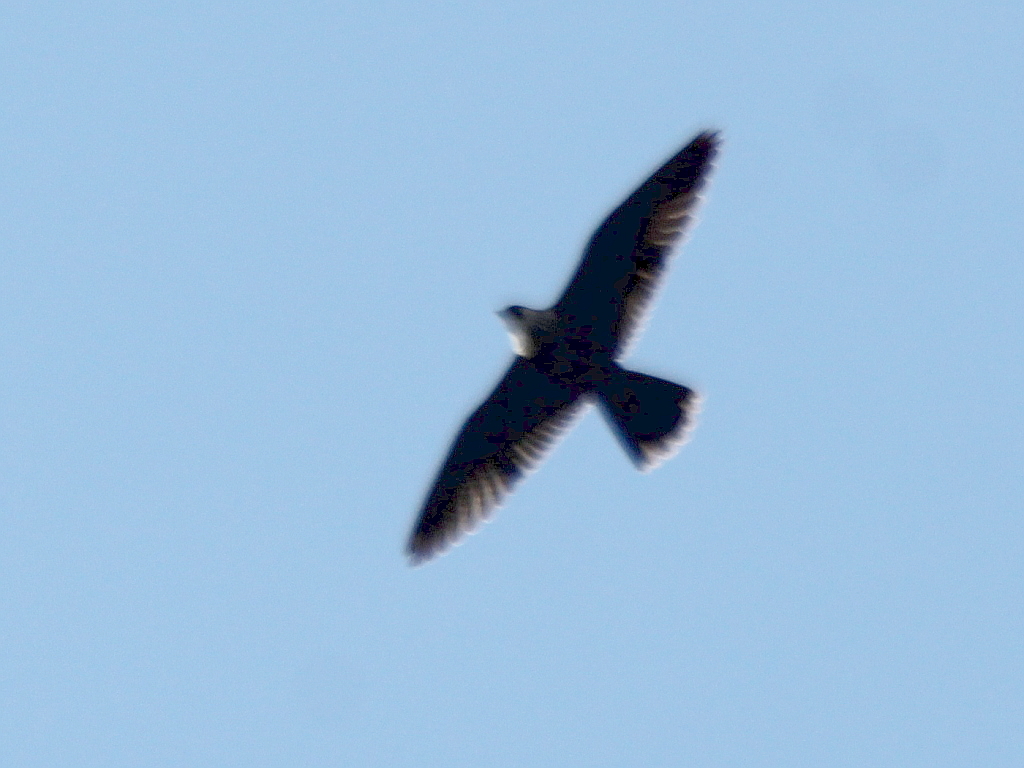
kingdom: Animalia
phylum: Chordata
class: Aves
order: Falconiformes
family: Falconidae
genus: Falco
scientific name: Falco peregrinus
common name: Peregrine falcon
